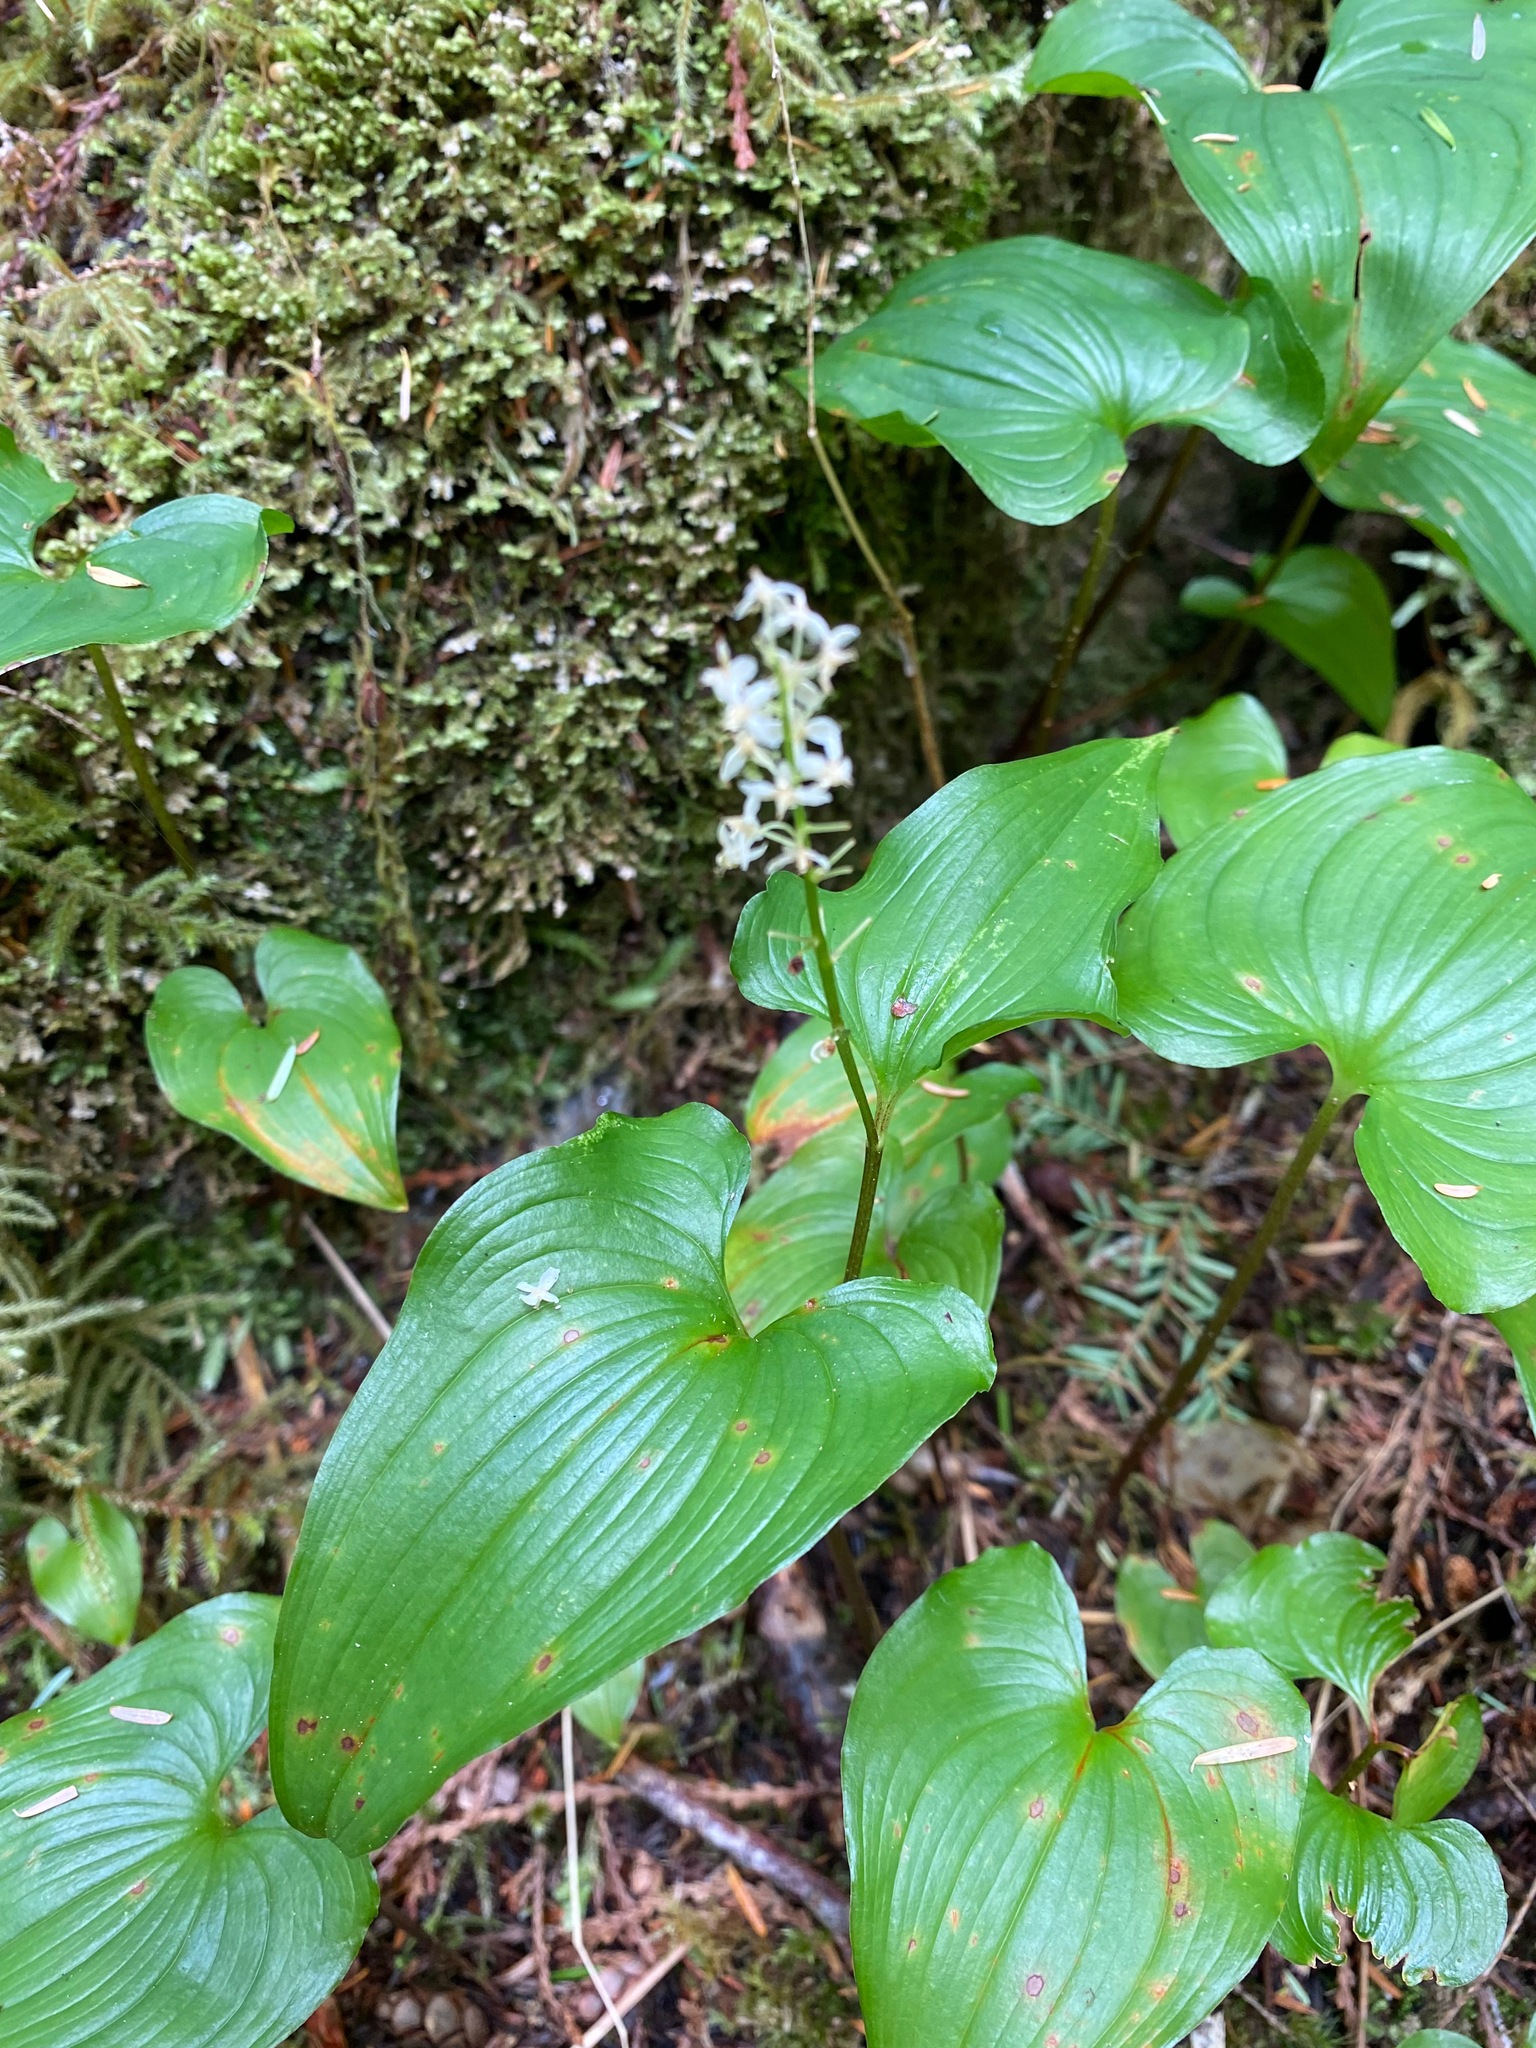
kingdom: Plantae
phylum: Tracheophyta
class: Liliopsida
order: Asparagales
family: Asparagaceae
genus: Maianthemum
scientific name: Maianthemum dilatatum
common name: False lily-of-the-valley
